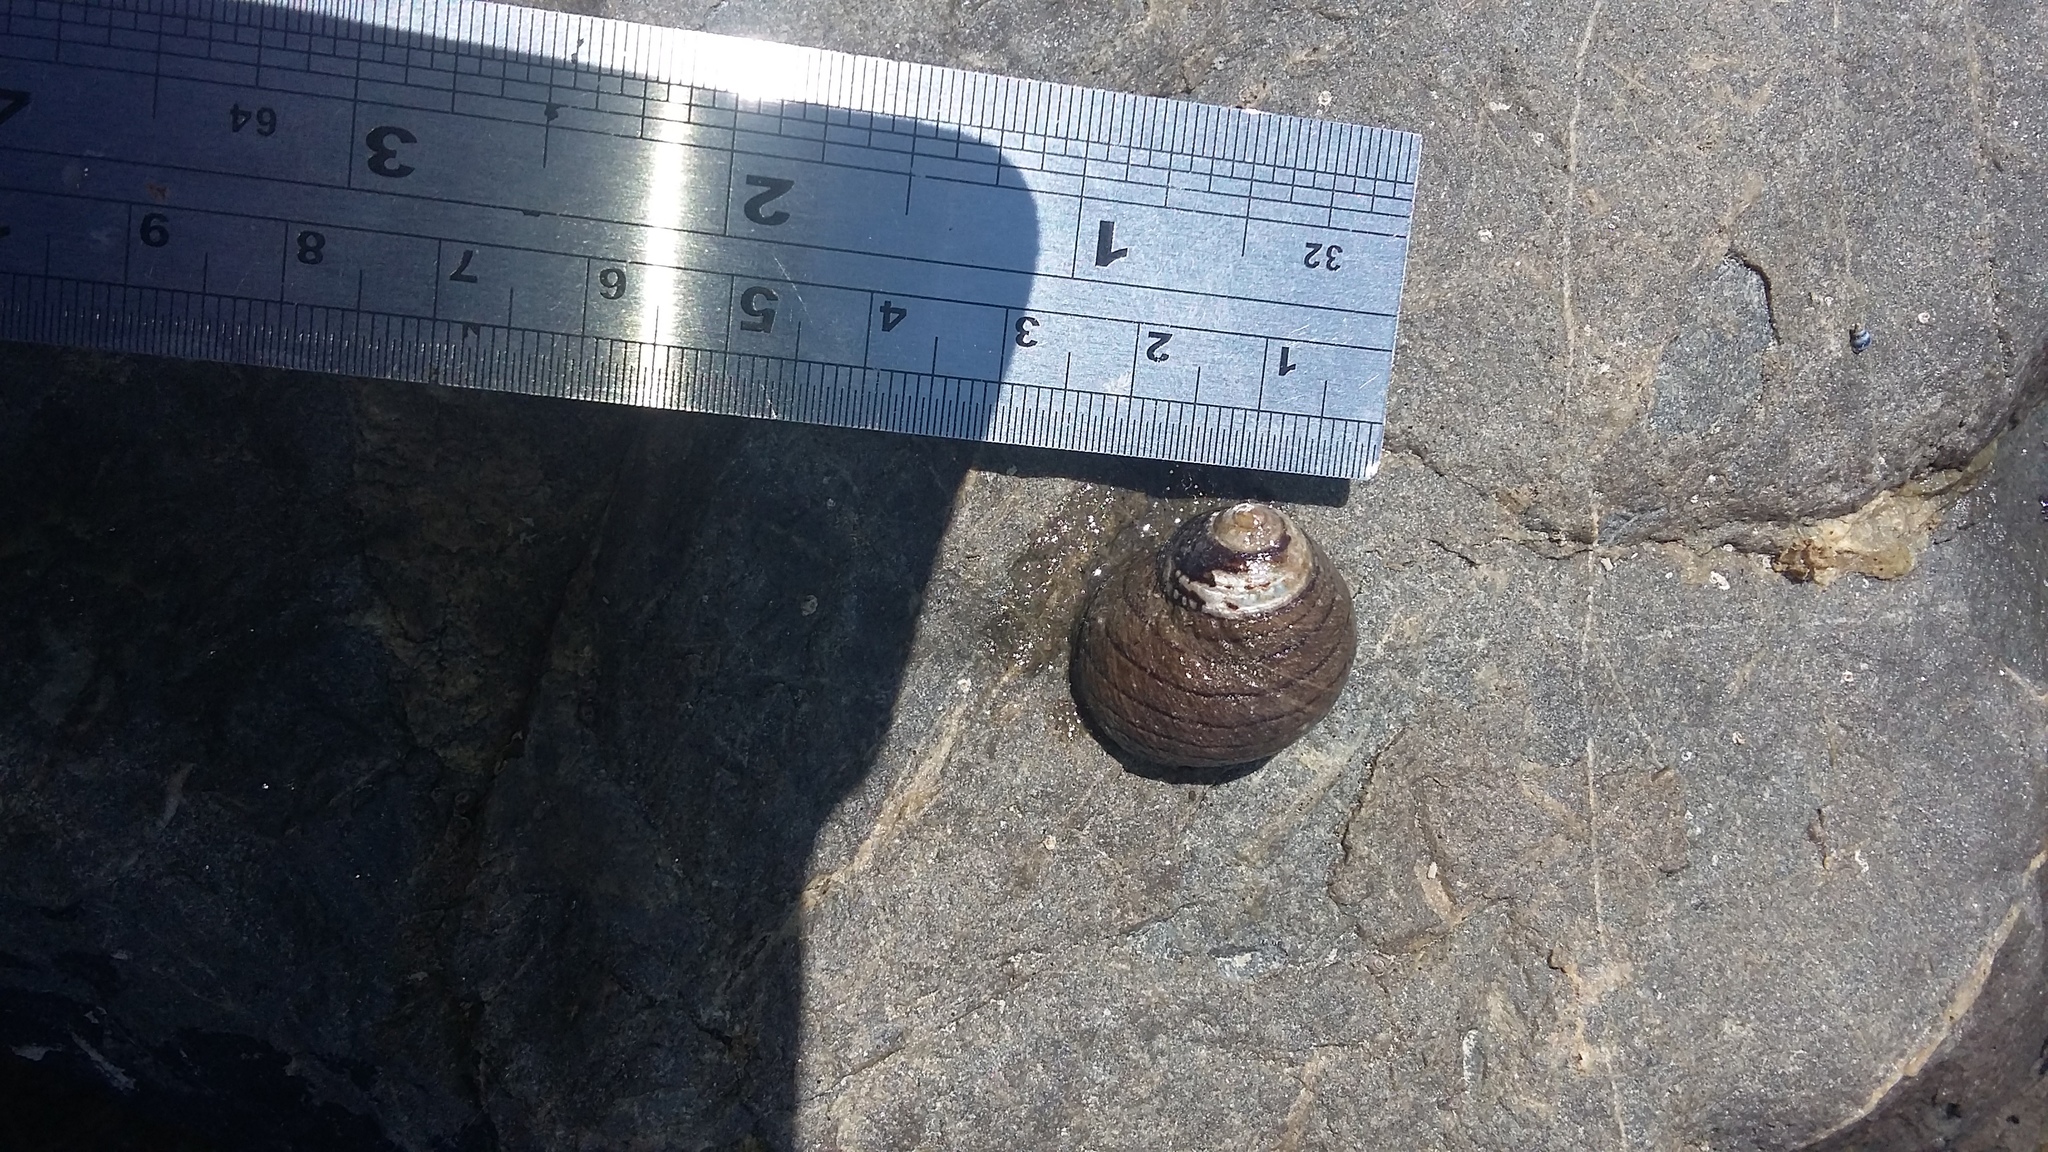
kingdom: Animalia
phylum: Mollusca
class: Gastropoda
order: Trochida
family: Trochidae
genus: Diloma
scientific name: Diloma aethiops
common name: Scorched monodont
